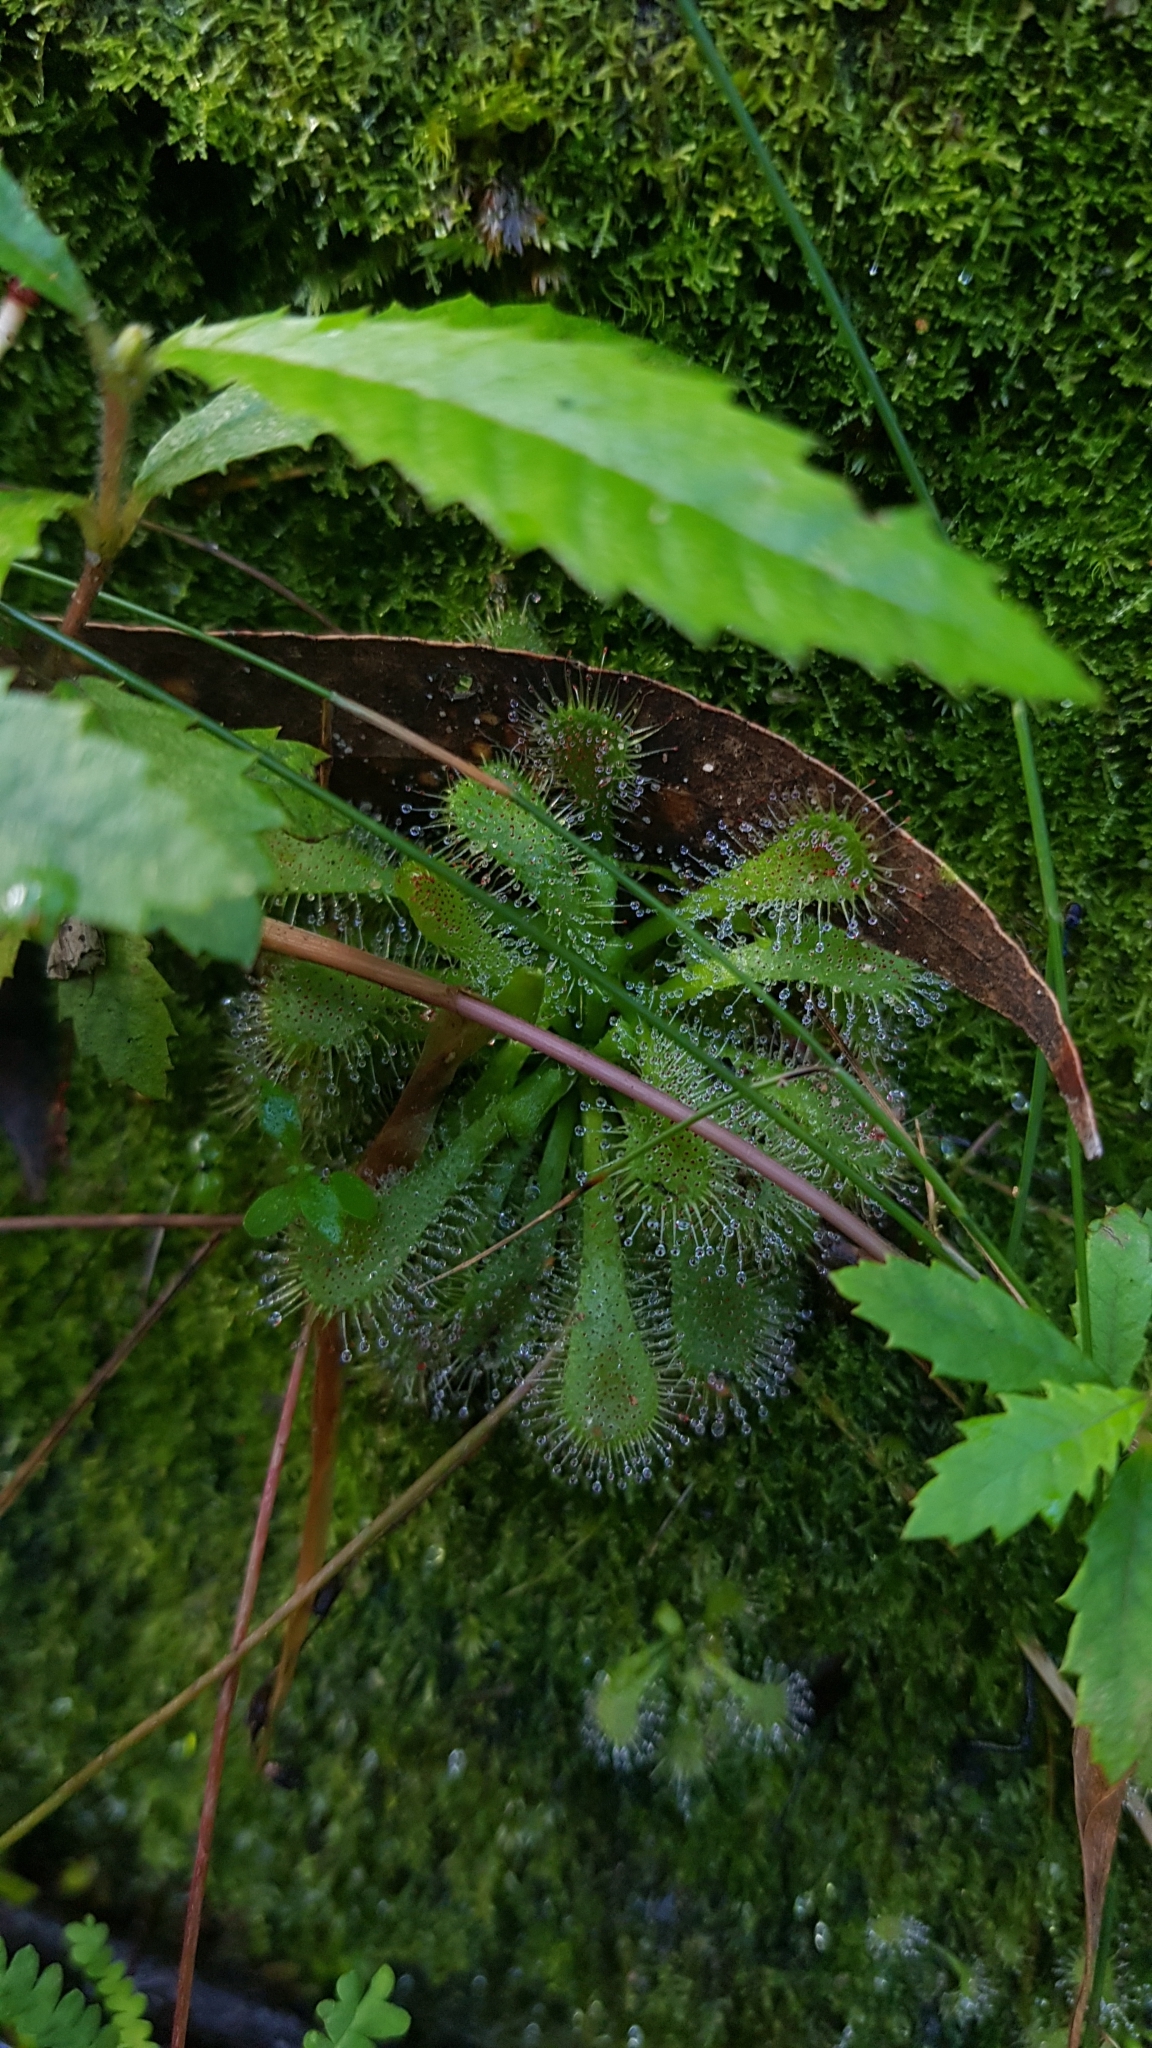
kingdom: Plantae
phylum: Tracheophyta
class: Magnoliopsida
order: Caryophyllales
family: Droseraceae
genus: Drosera
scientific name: Drosera spatulata
